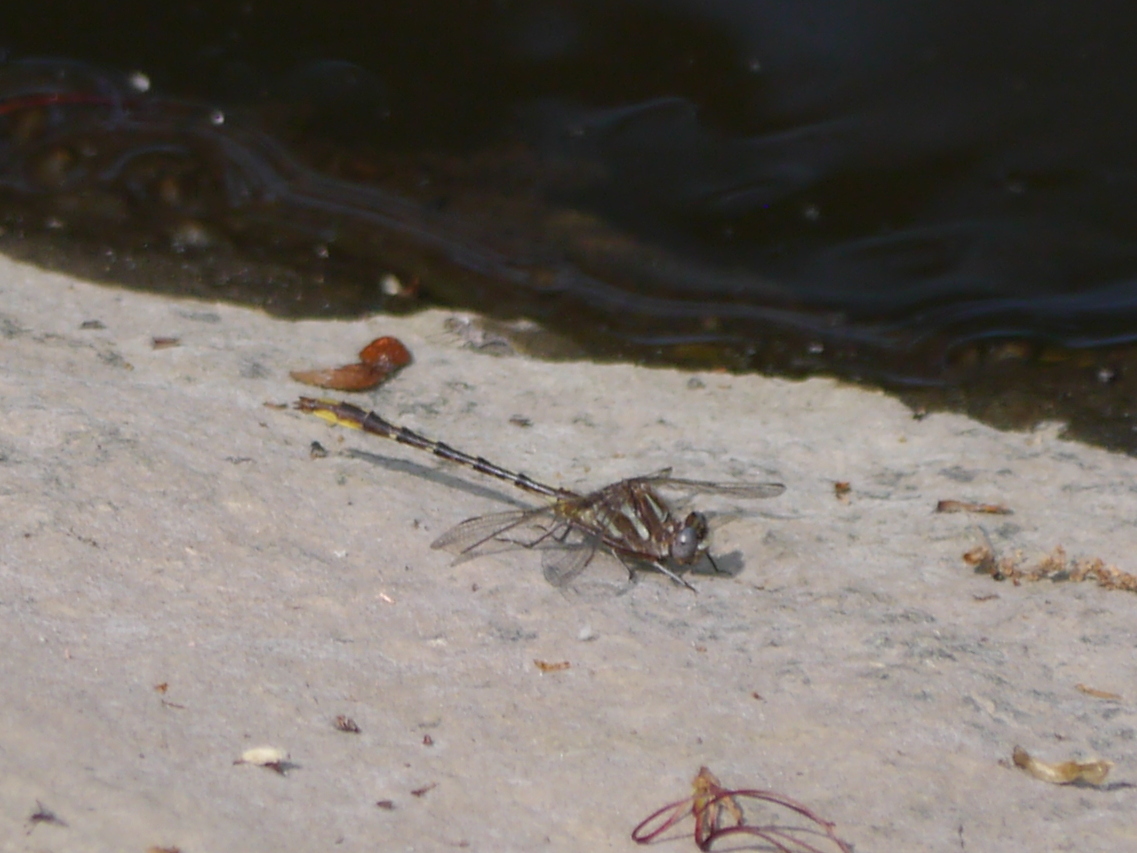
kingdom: Animalia
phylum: Arthropoda
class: Insecta
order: Odonata
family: Gomphidae
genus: Phanogomphus
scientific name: Phanogomphus exilis
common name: Lancet clubtail
